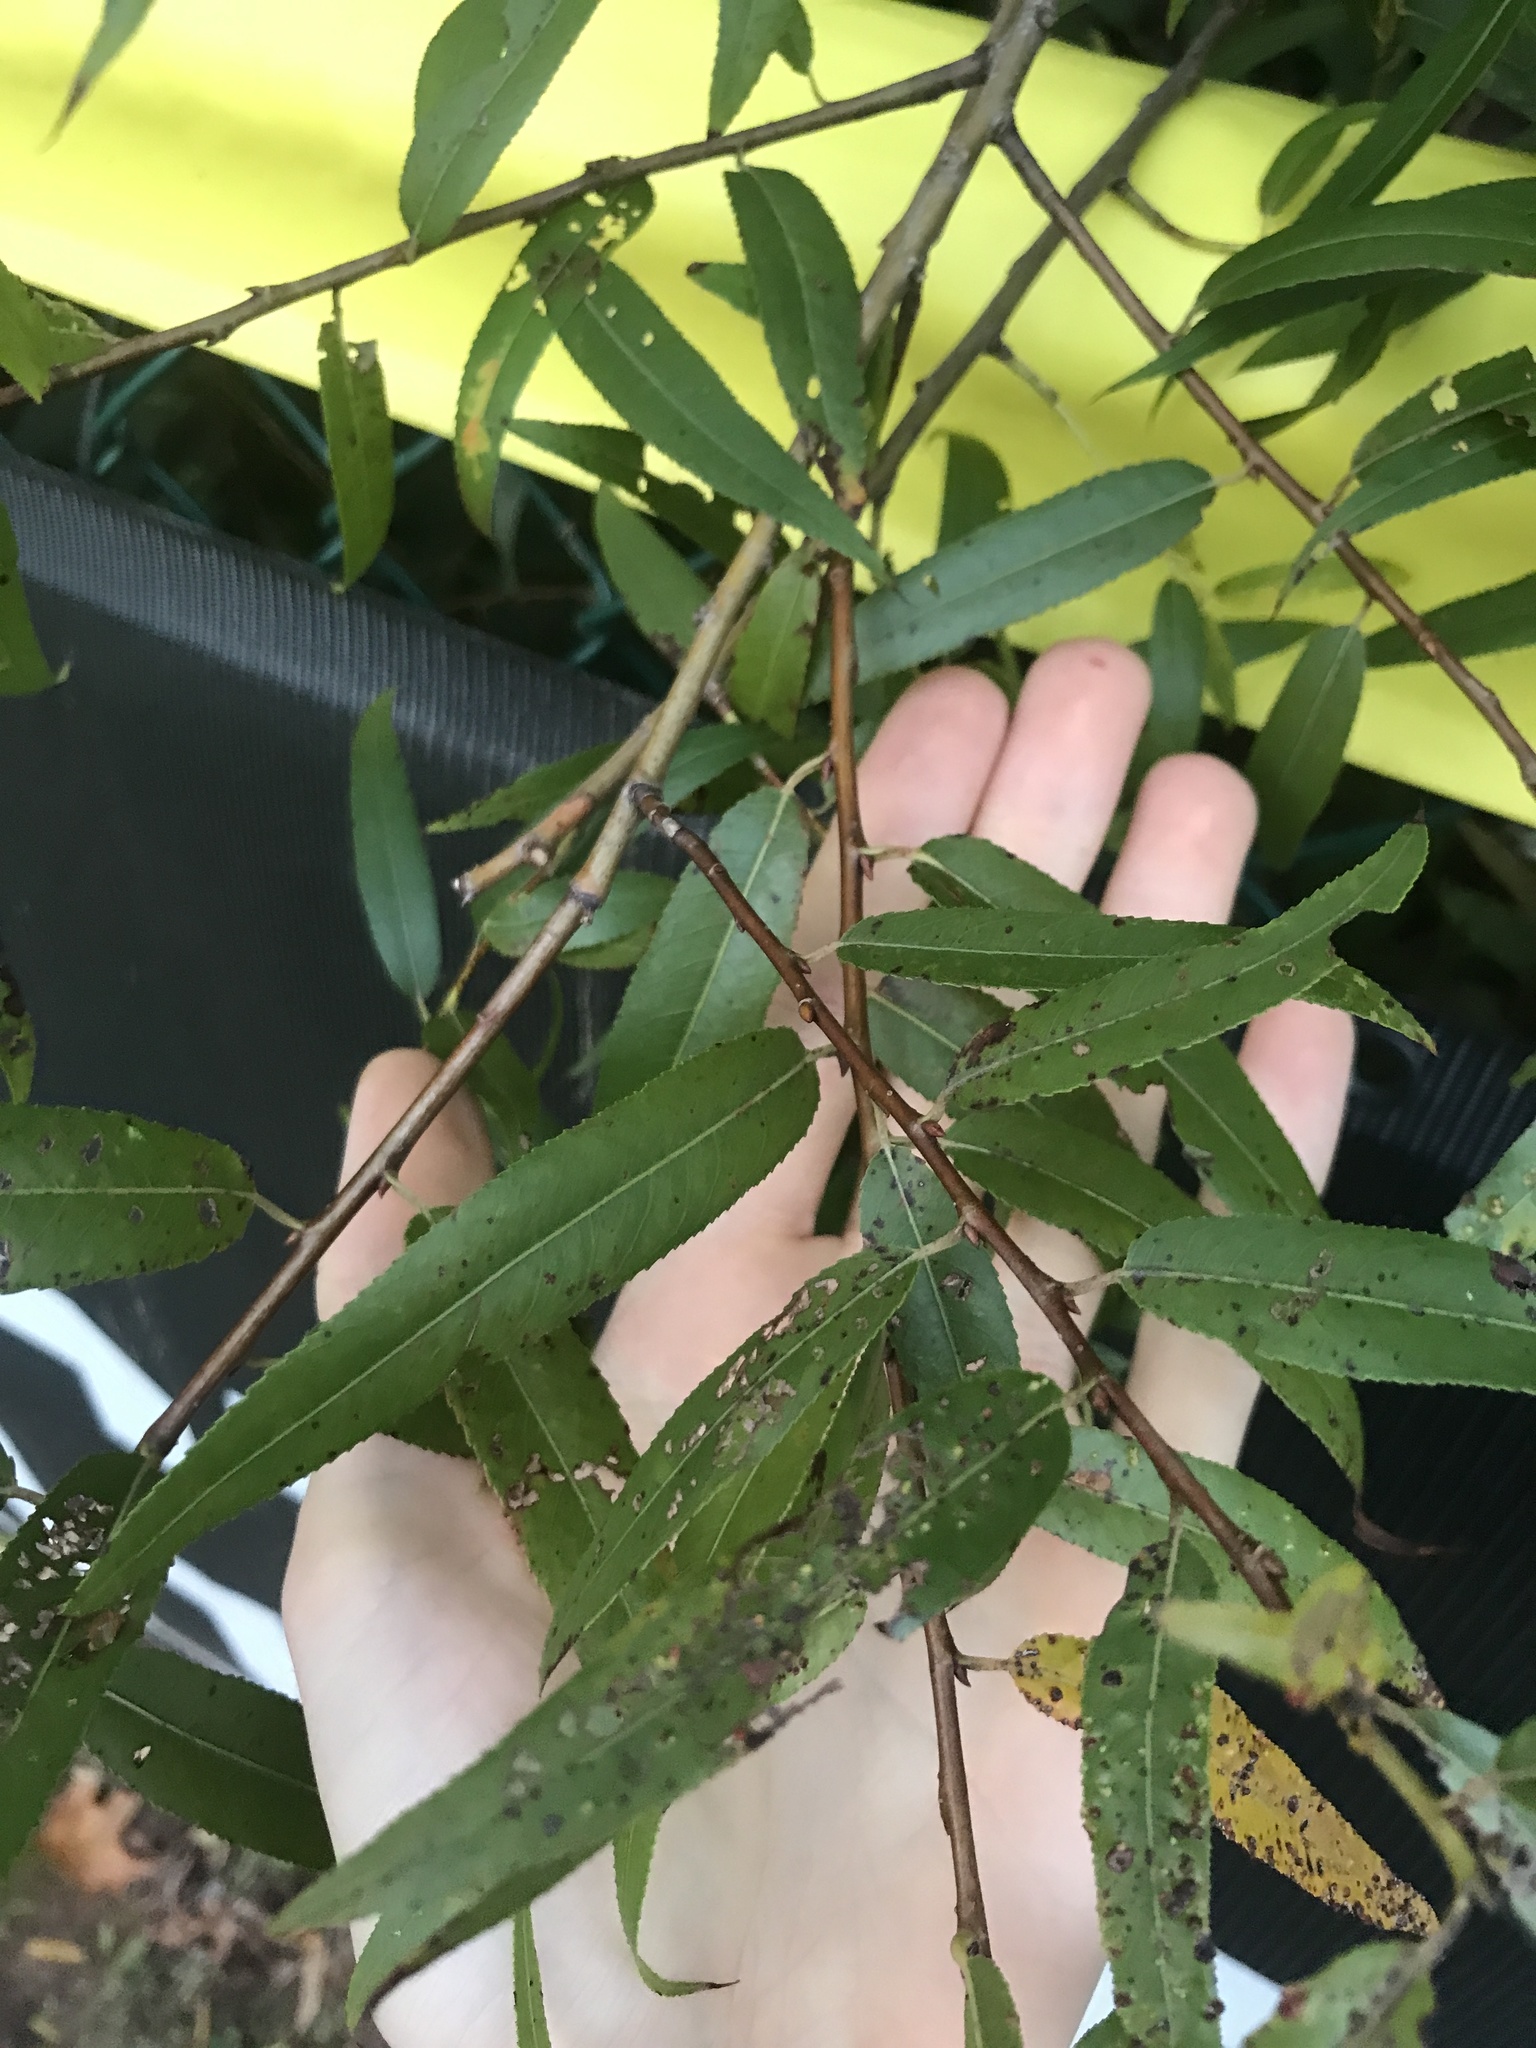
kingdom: Plantae
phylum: Tracheophyta
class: Magnoliopsida
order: Malpighiales
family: Salicaceae
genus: Salix
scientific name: Salix nigra
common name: Black willow
